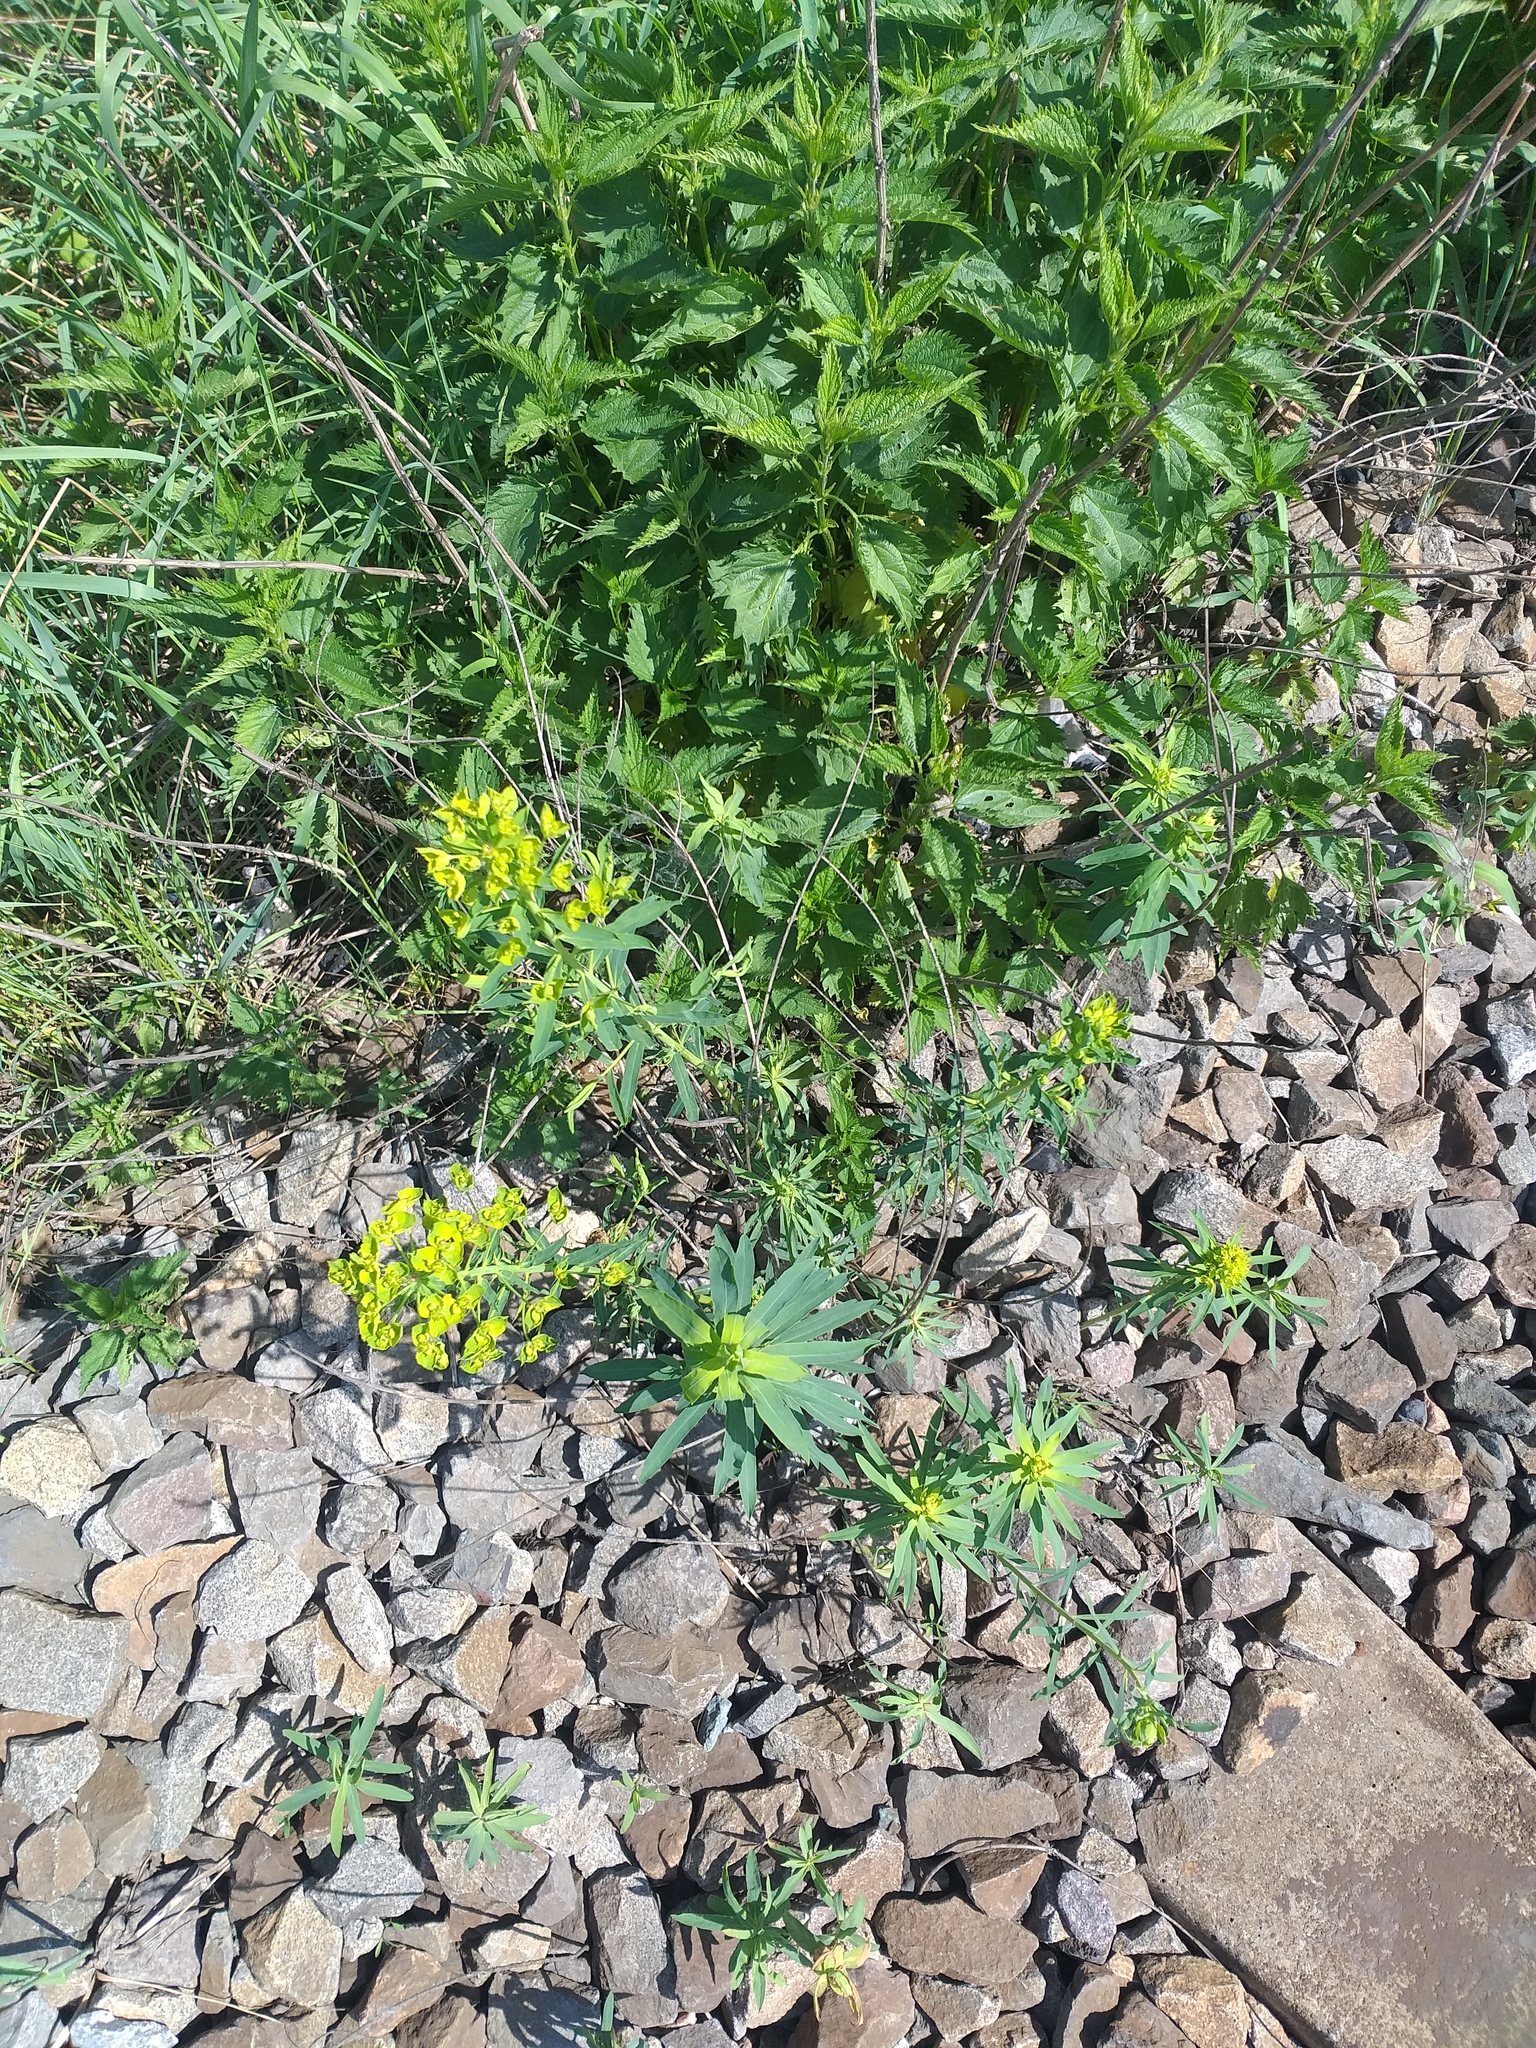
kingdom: Plantae
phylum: Tracheophyta
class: Magnoliopsida
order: Malpighiales
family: Euphorbiaceae
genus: Euphorbia
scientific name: Euphorbia virgata
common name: Leafy spurge
